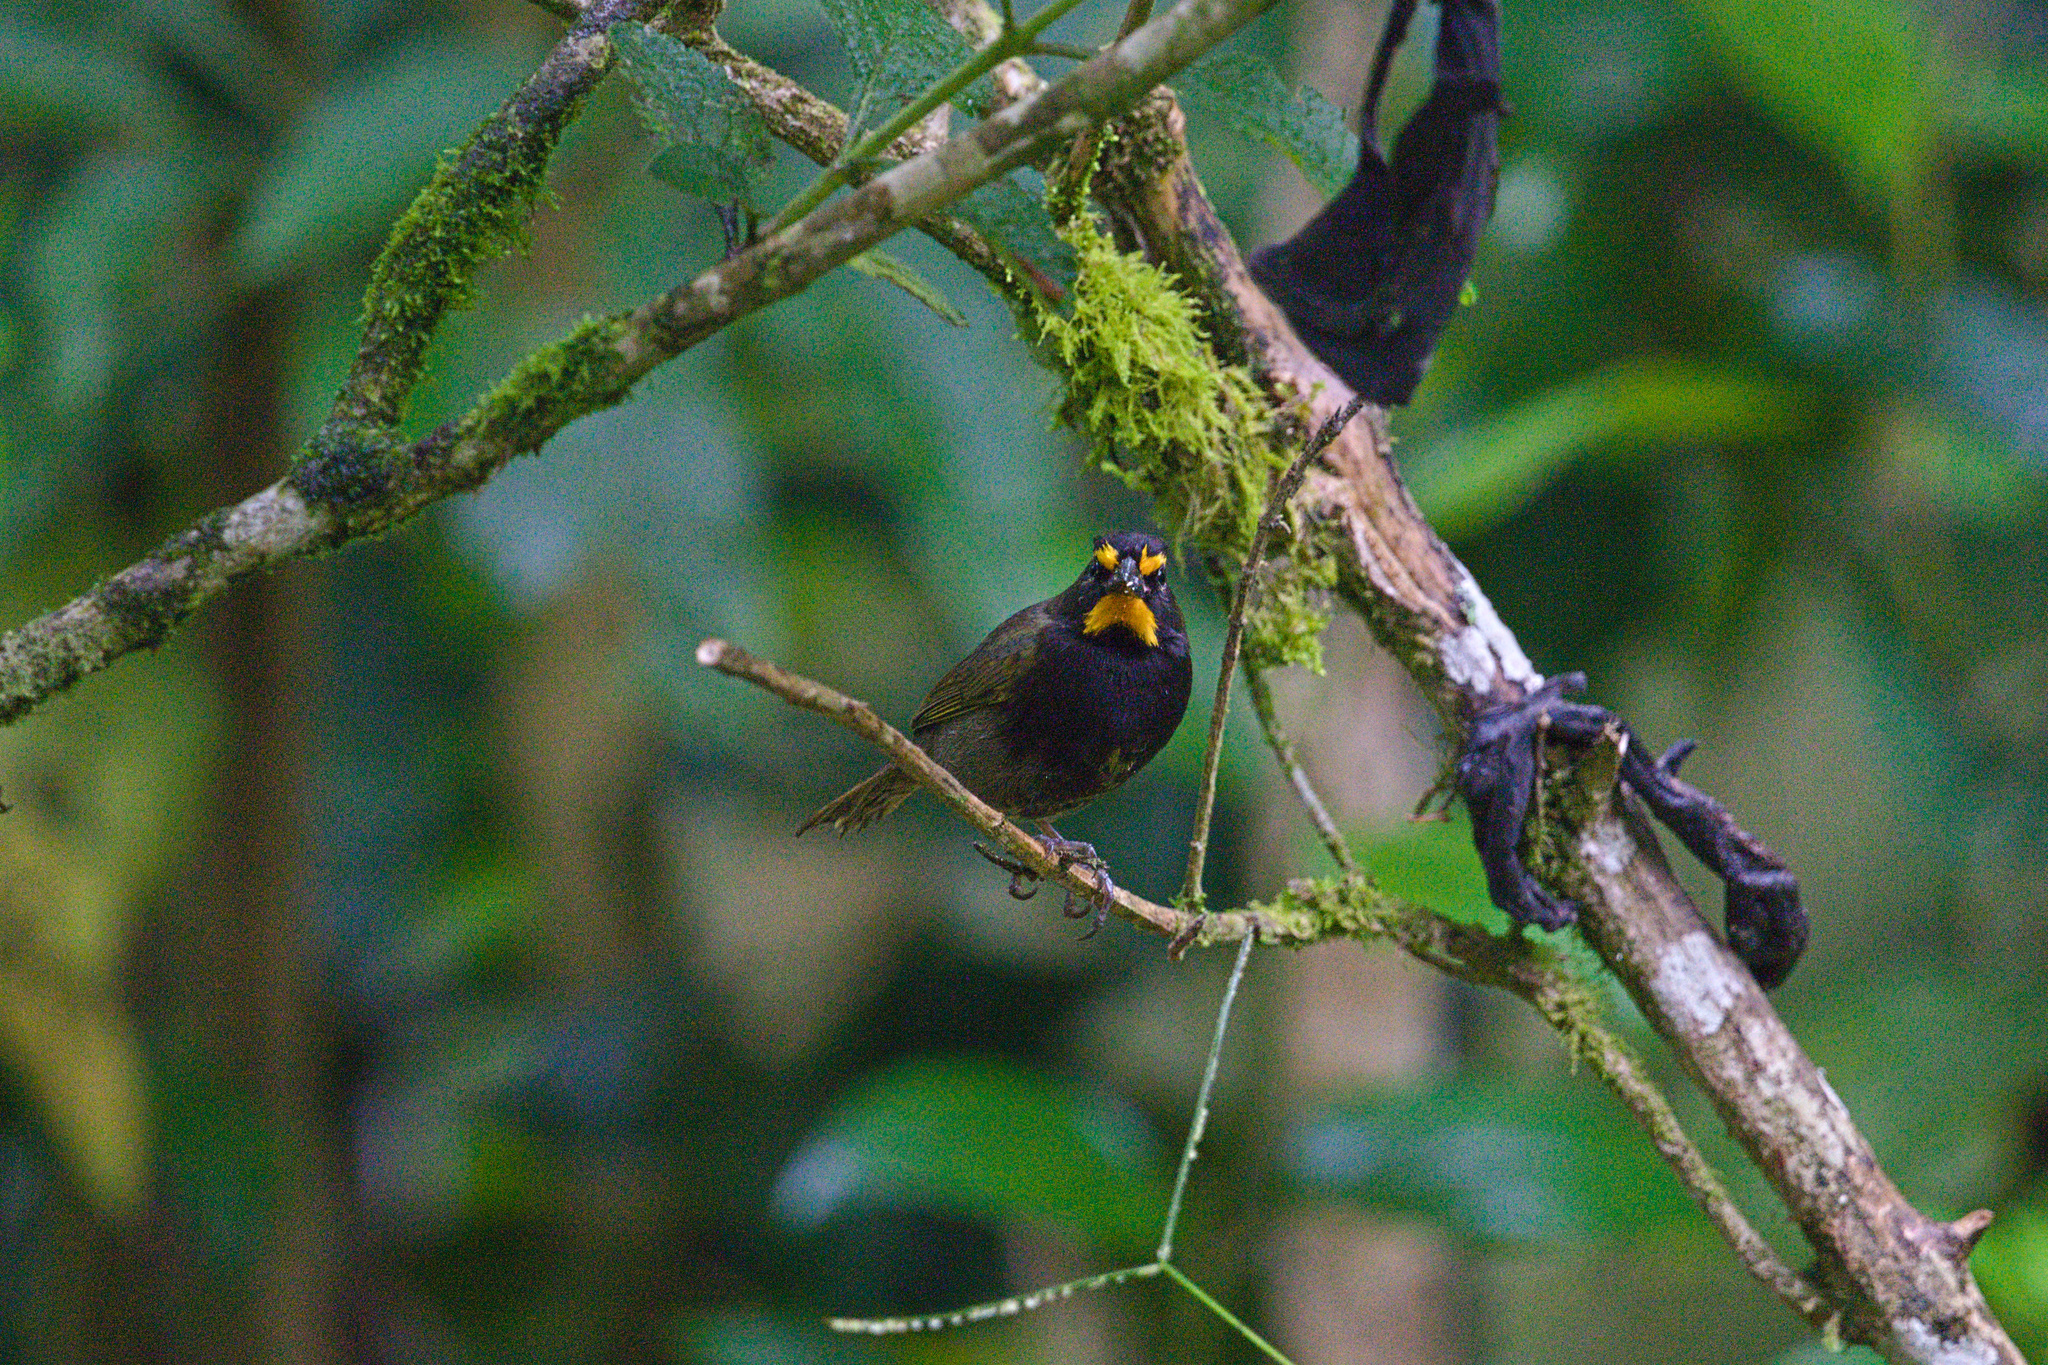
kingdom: Animalia
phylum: Chordata
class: Aves
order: Passeriformes
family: Thraupidae
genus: Tiaris
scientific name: Tiaris olivaceus
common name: Yellow-faced grassquit
